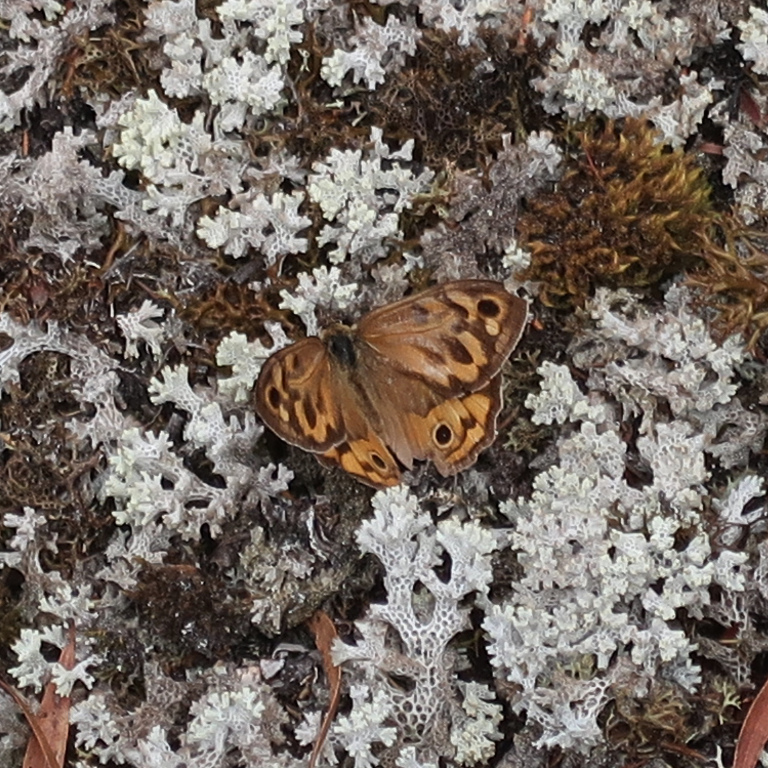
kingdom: Animalia
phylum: Arthropoda
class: Insecta
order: Lepidoptera
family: Nymphalidae
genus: Heteronympha
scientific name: Heteronympha merope
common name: Common brown
